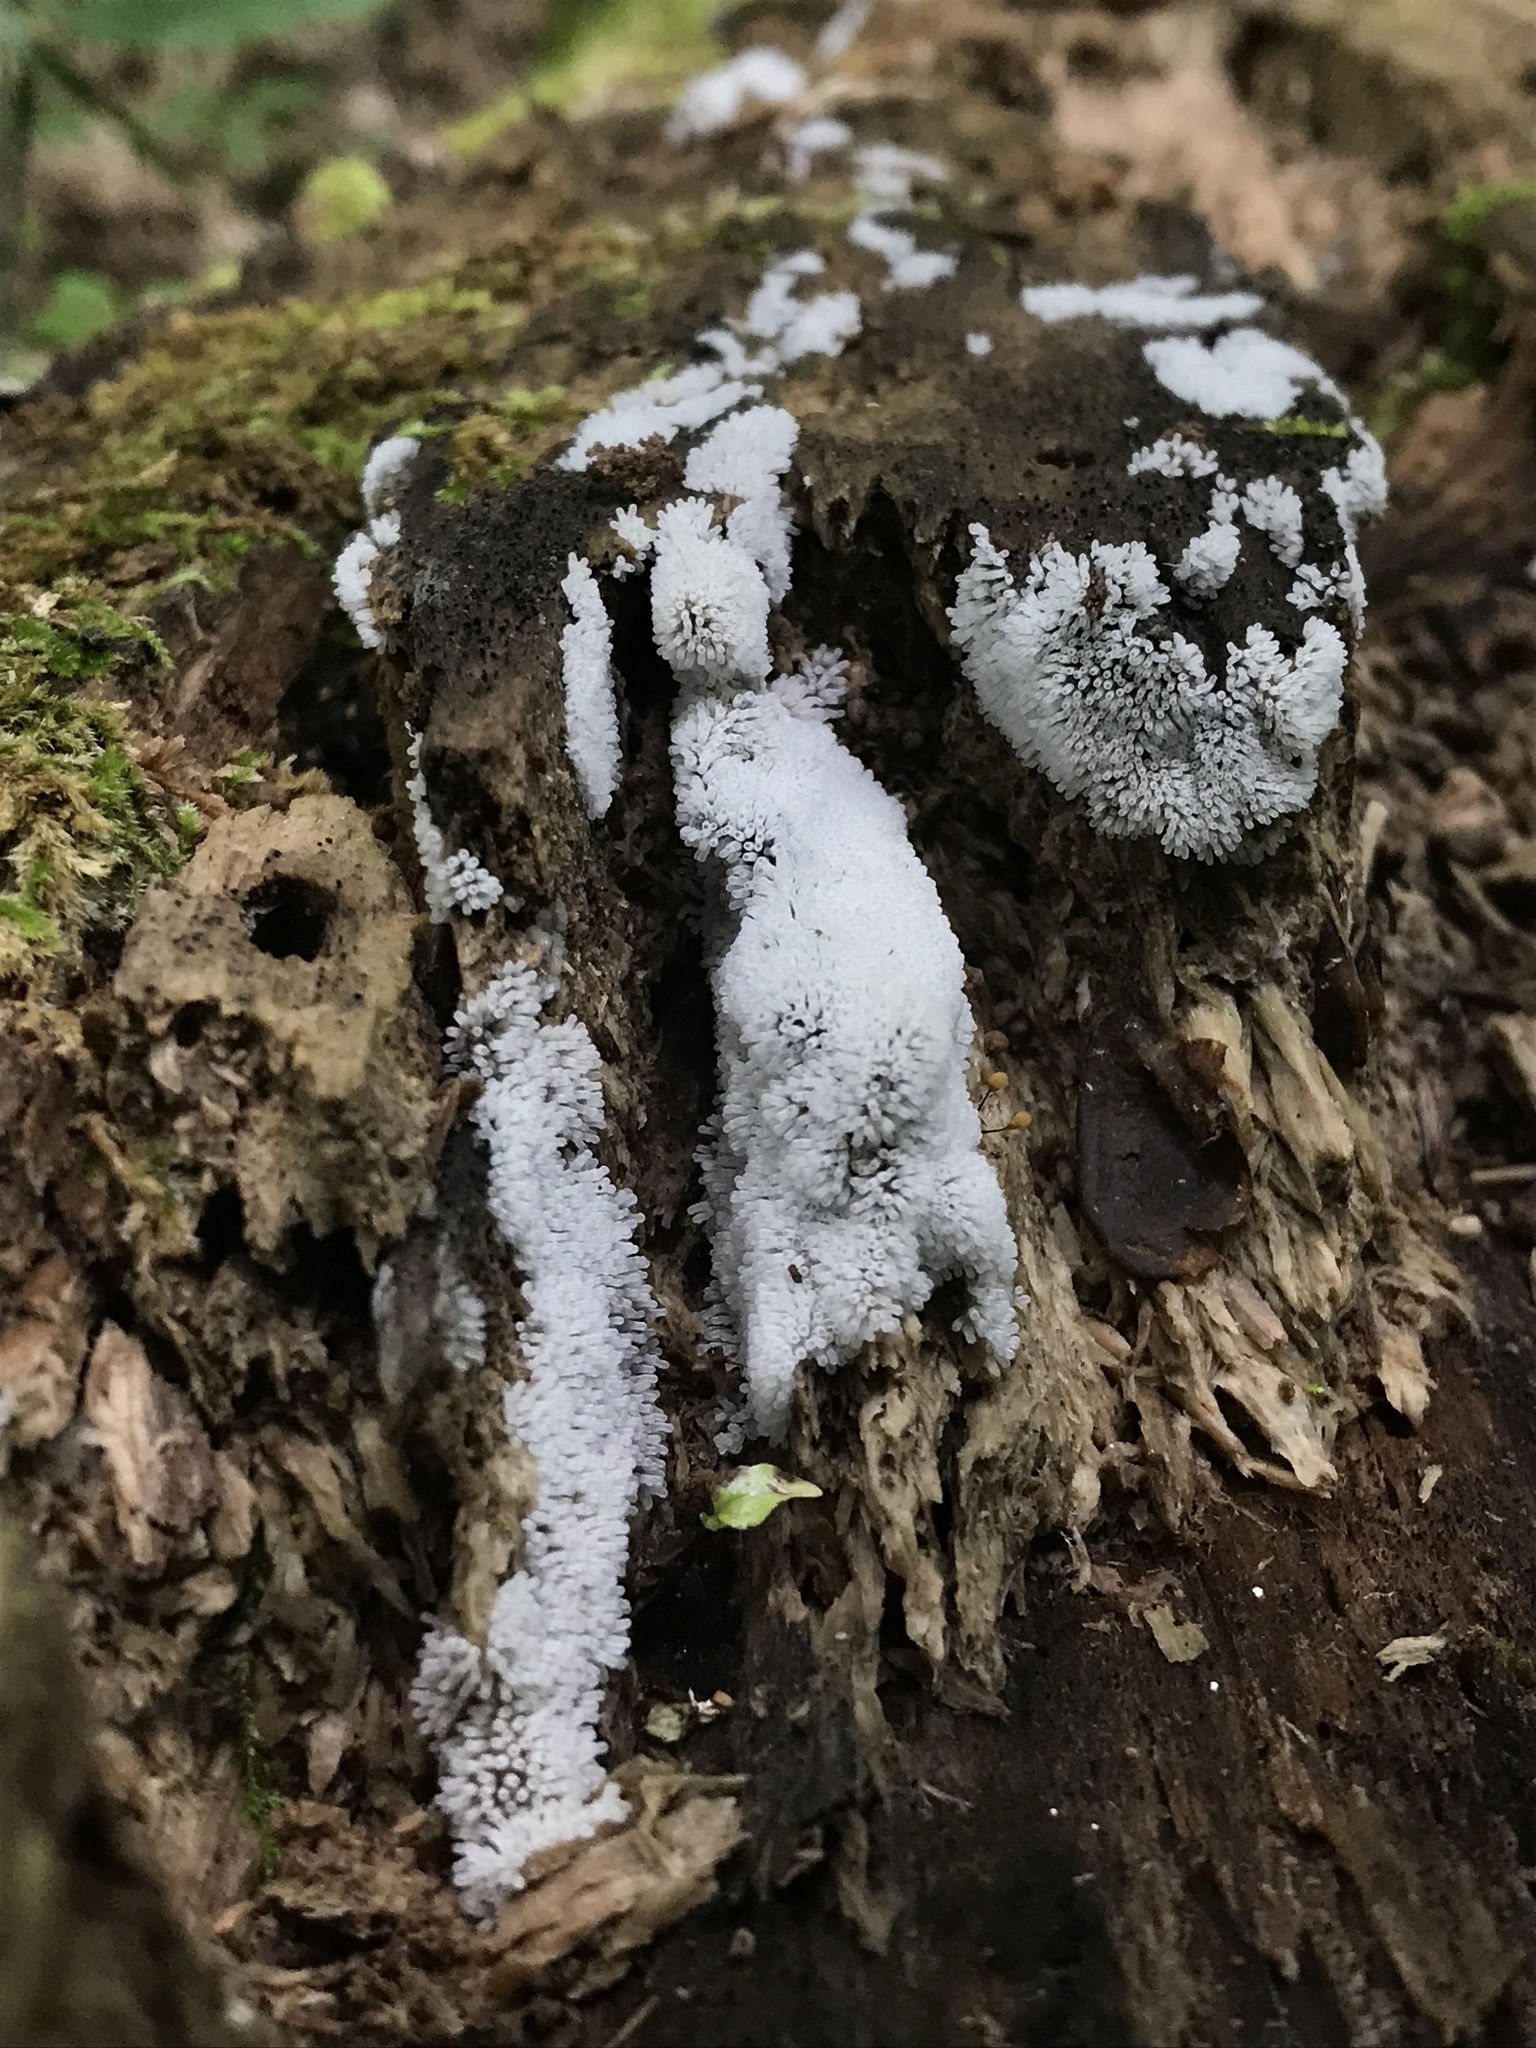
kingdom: Protozoa
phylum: Mycetozoa
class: Protosteliomycetes
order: Ceratiomyxales
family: Ceratiomyxaceae
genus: Ceratiomyxa
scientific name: Ceratiomyxa fruticulosa
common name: Honeycomb coral slime mold
